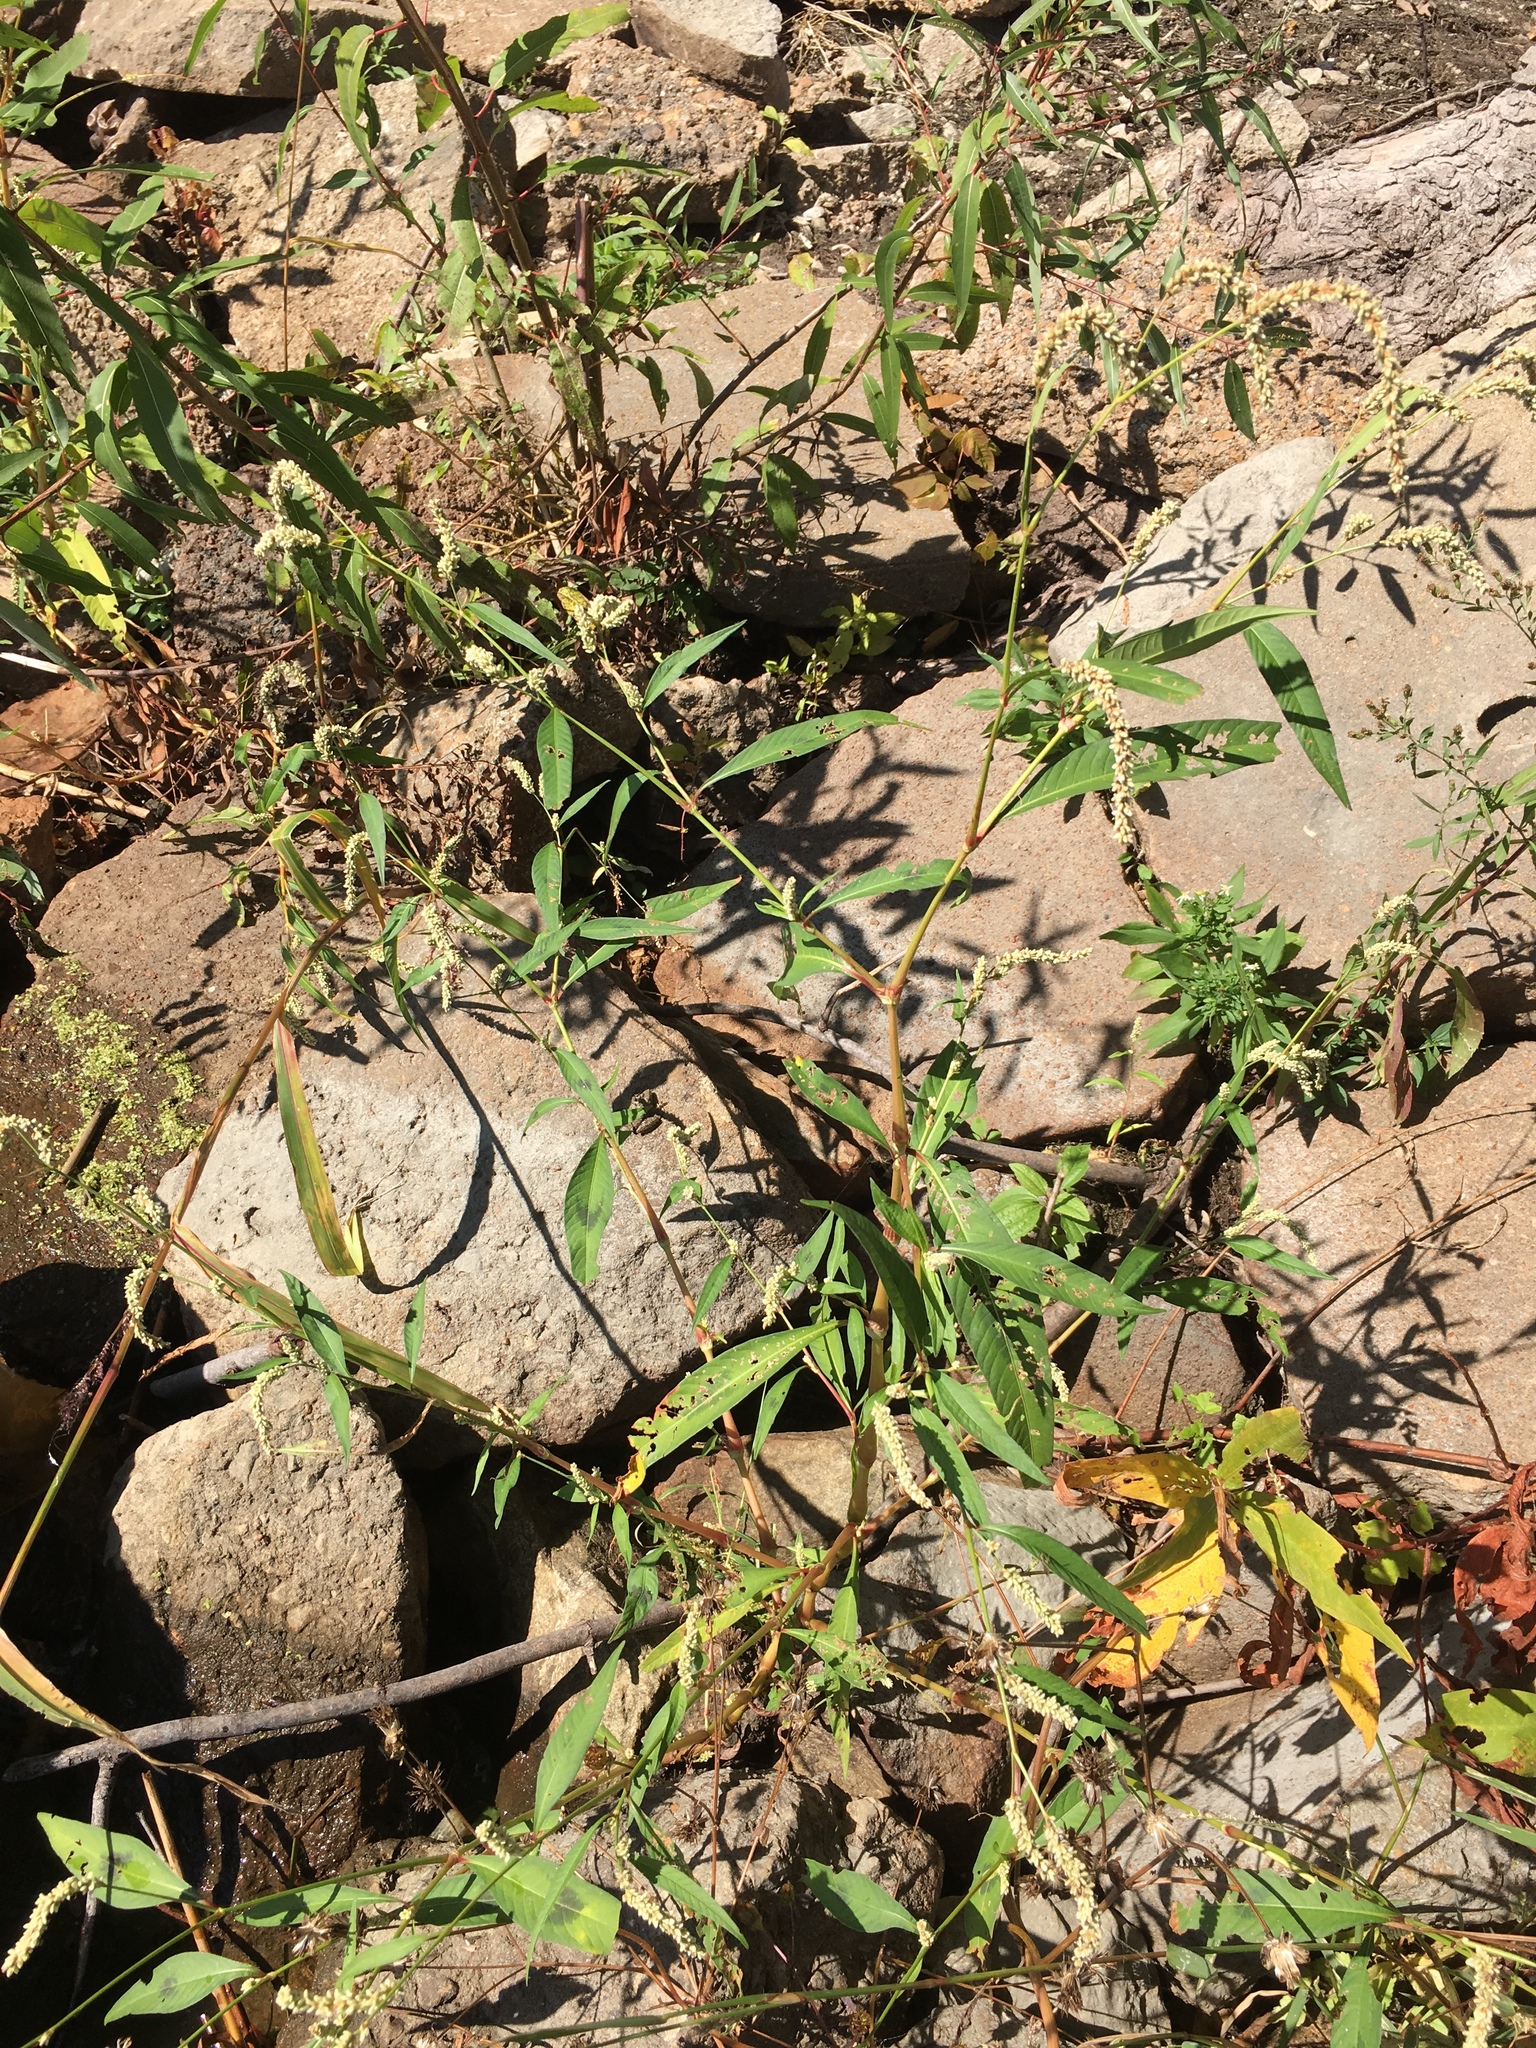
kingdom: Plantae
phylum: Tracheophyta
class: Magnoliopsida
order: Caryophyllales
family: Polygonaceae
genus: Persicaria
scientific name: Persicaria lapathifolia
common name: Curlytop knotweed
